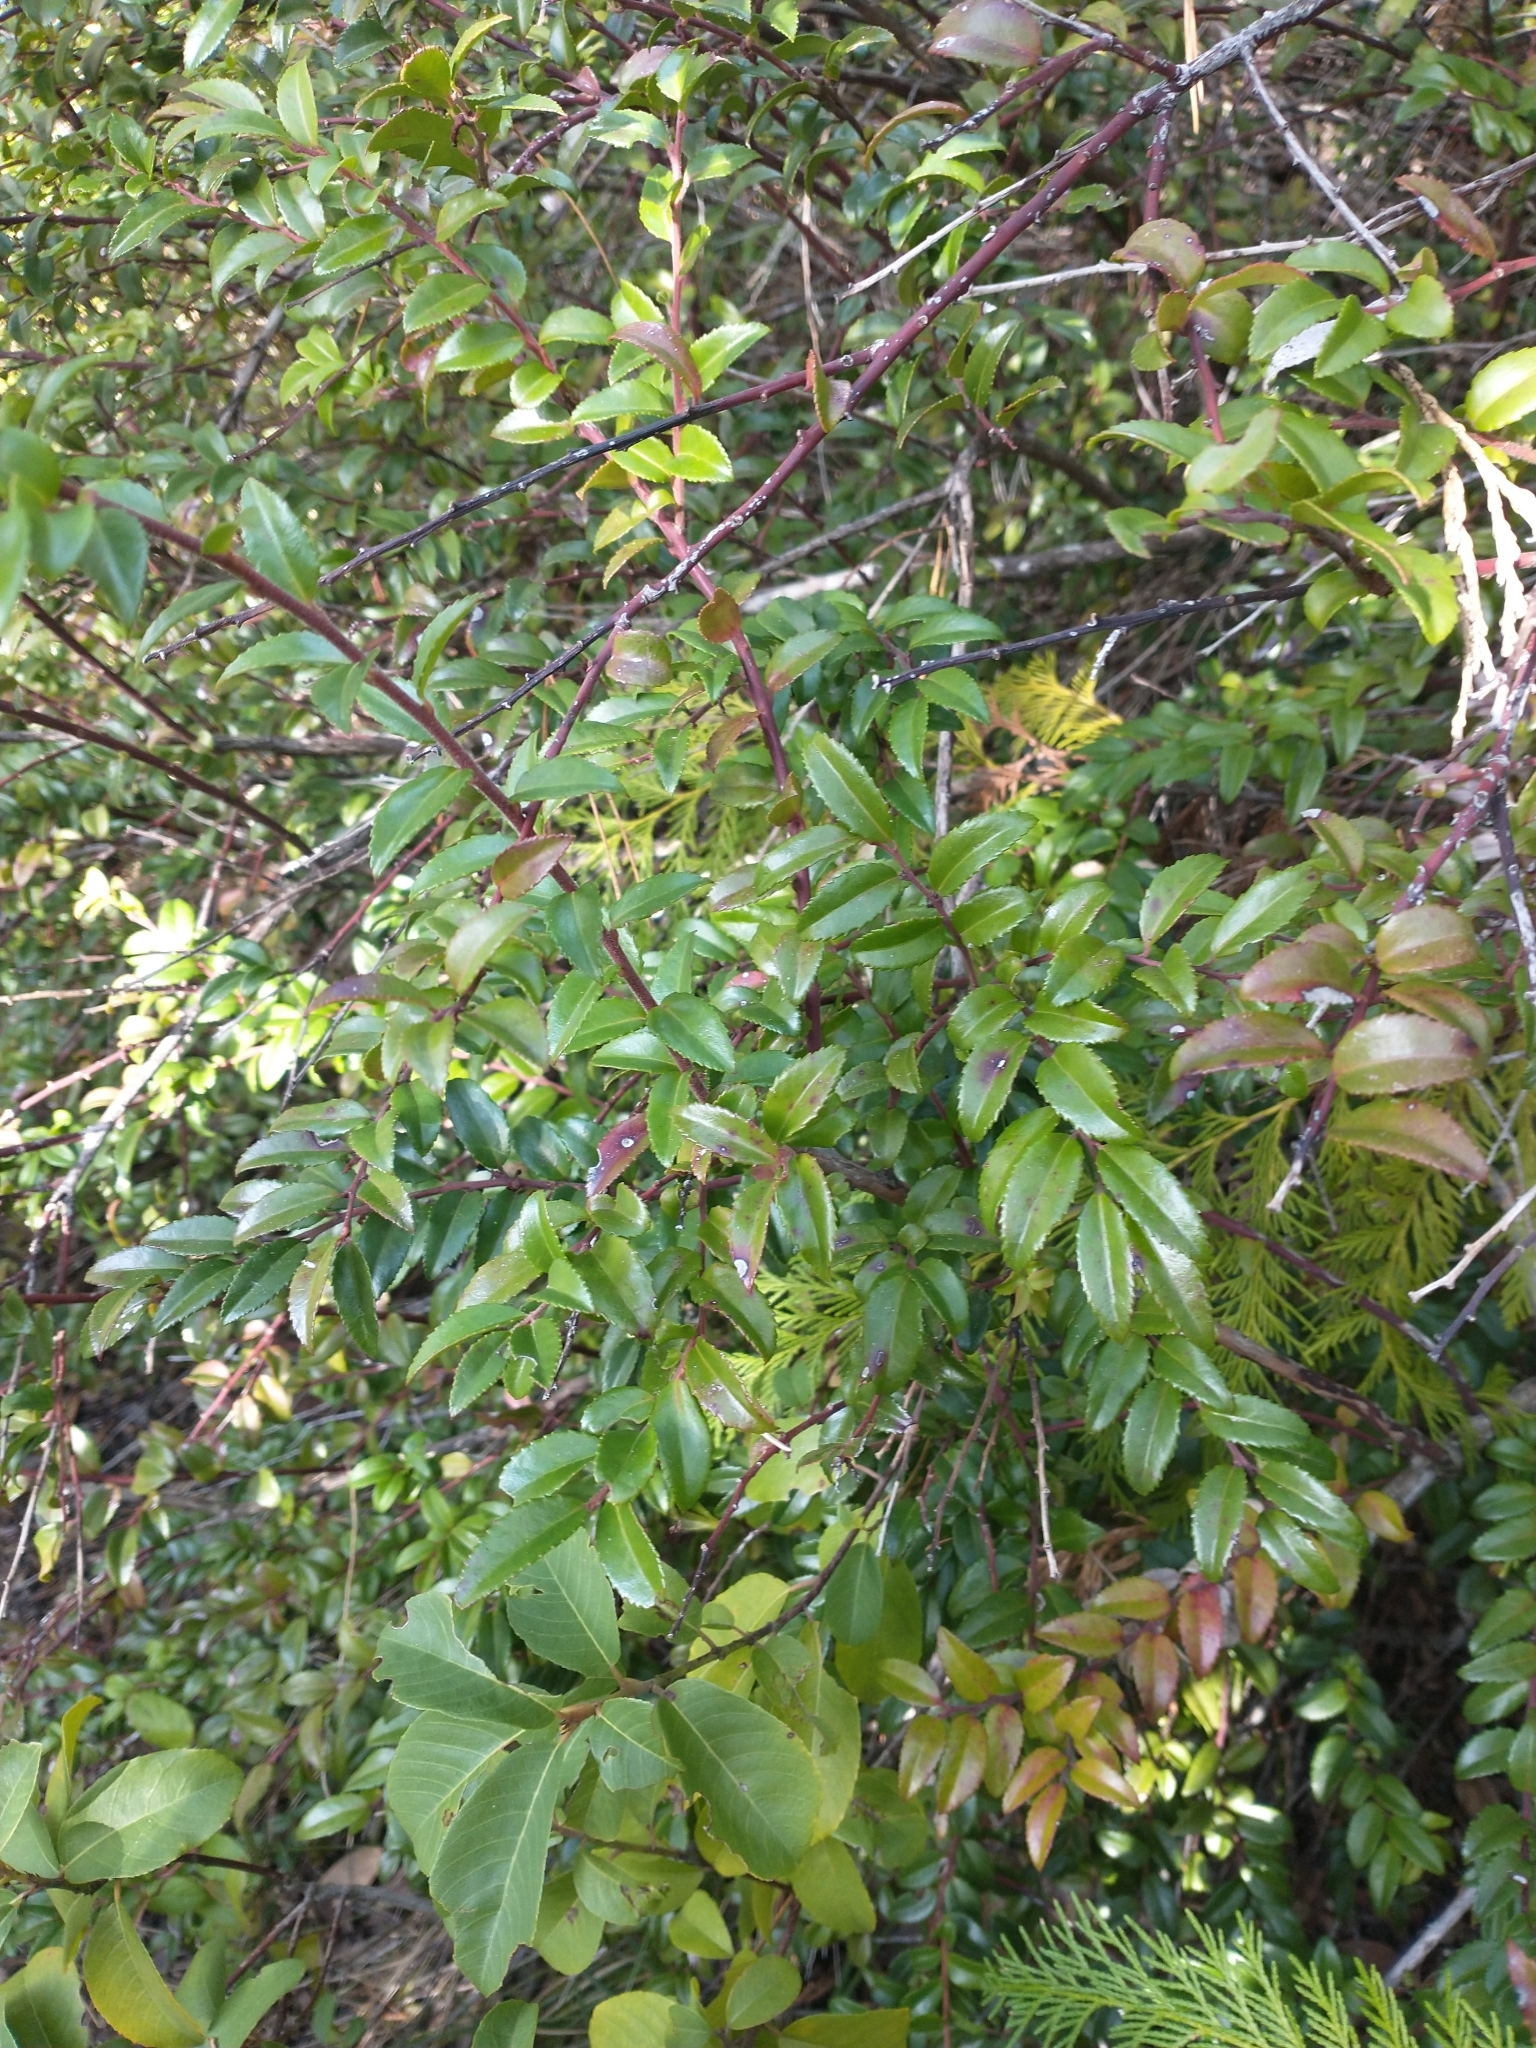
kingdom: Plantae
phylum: Tracheophyta
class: Magnoliopsida
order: Ericales
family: Ericaceae
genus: Vaccinium
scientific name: Vaccinium ovatum
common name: California-huckleberry
